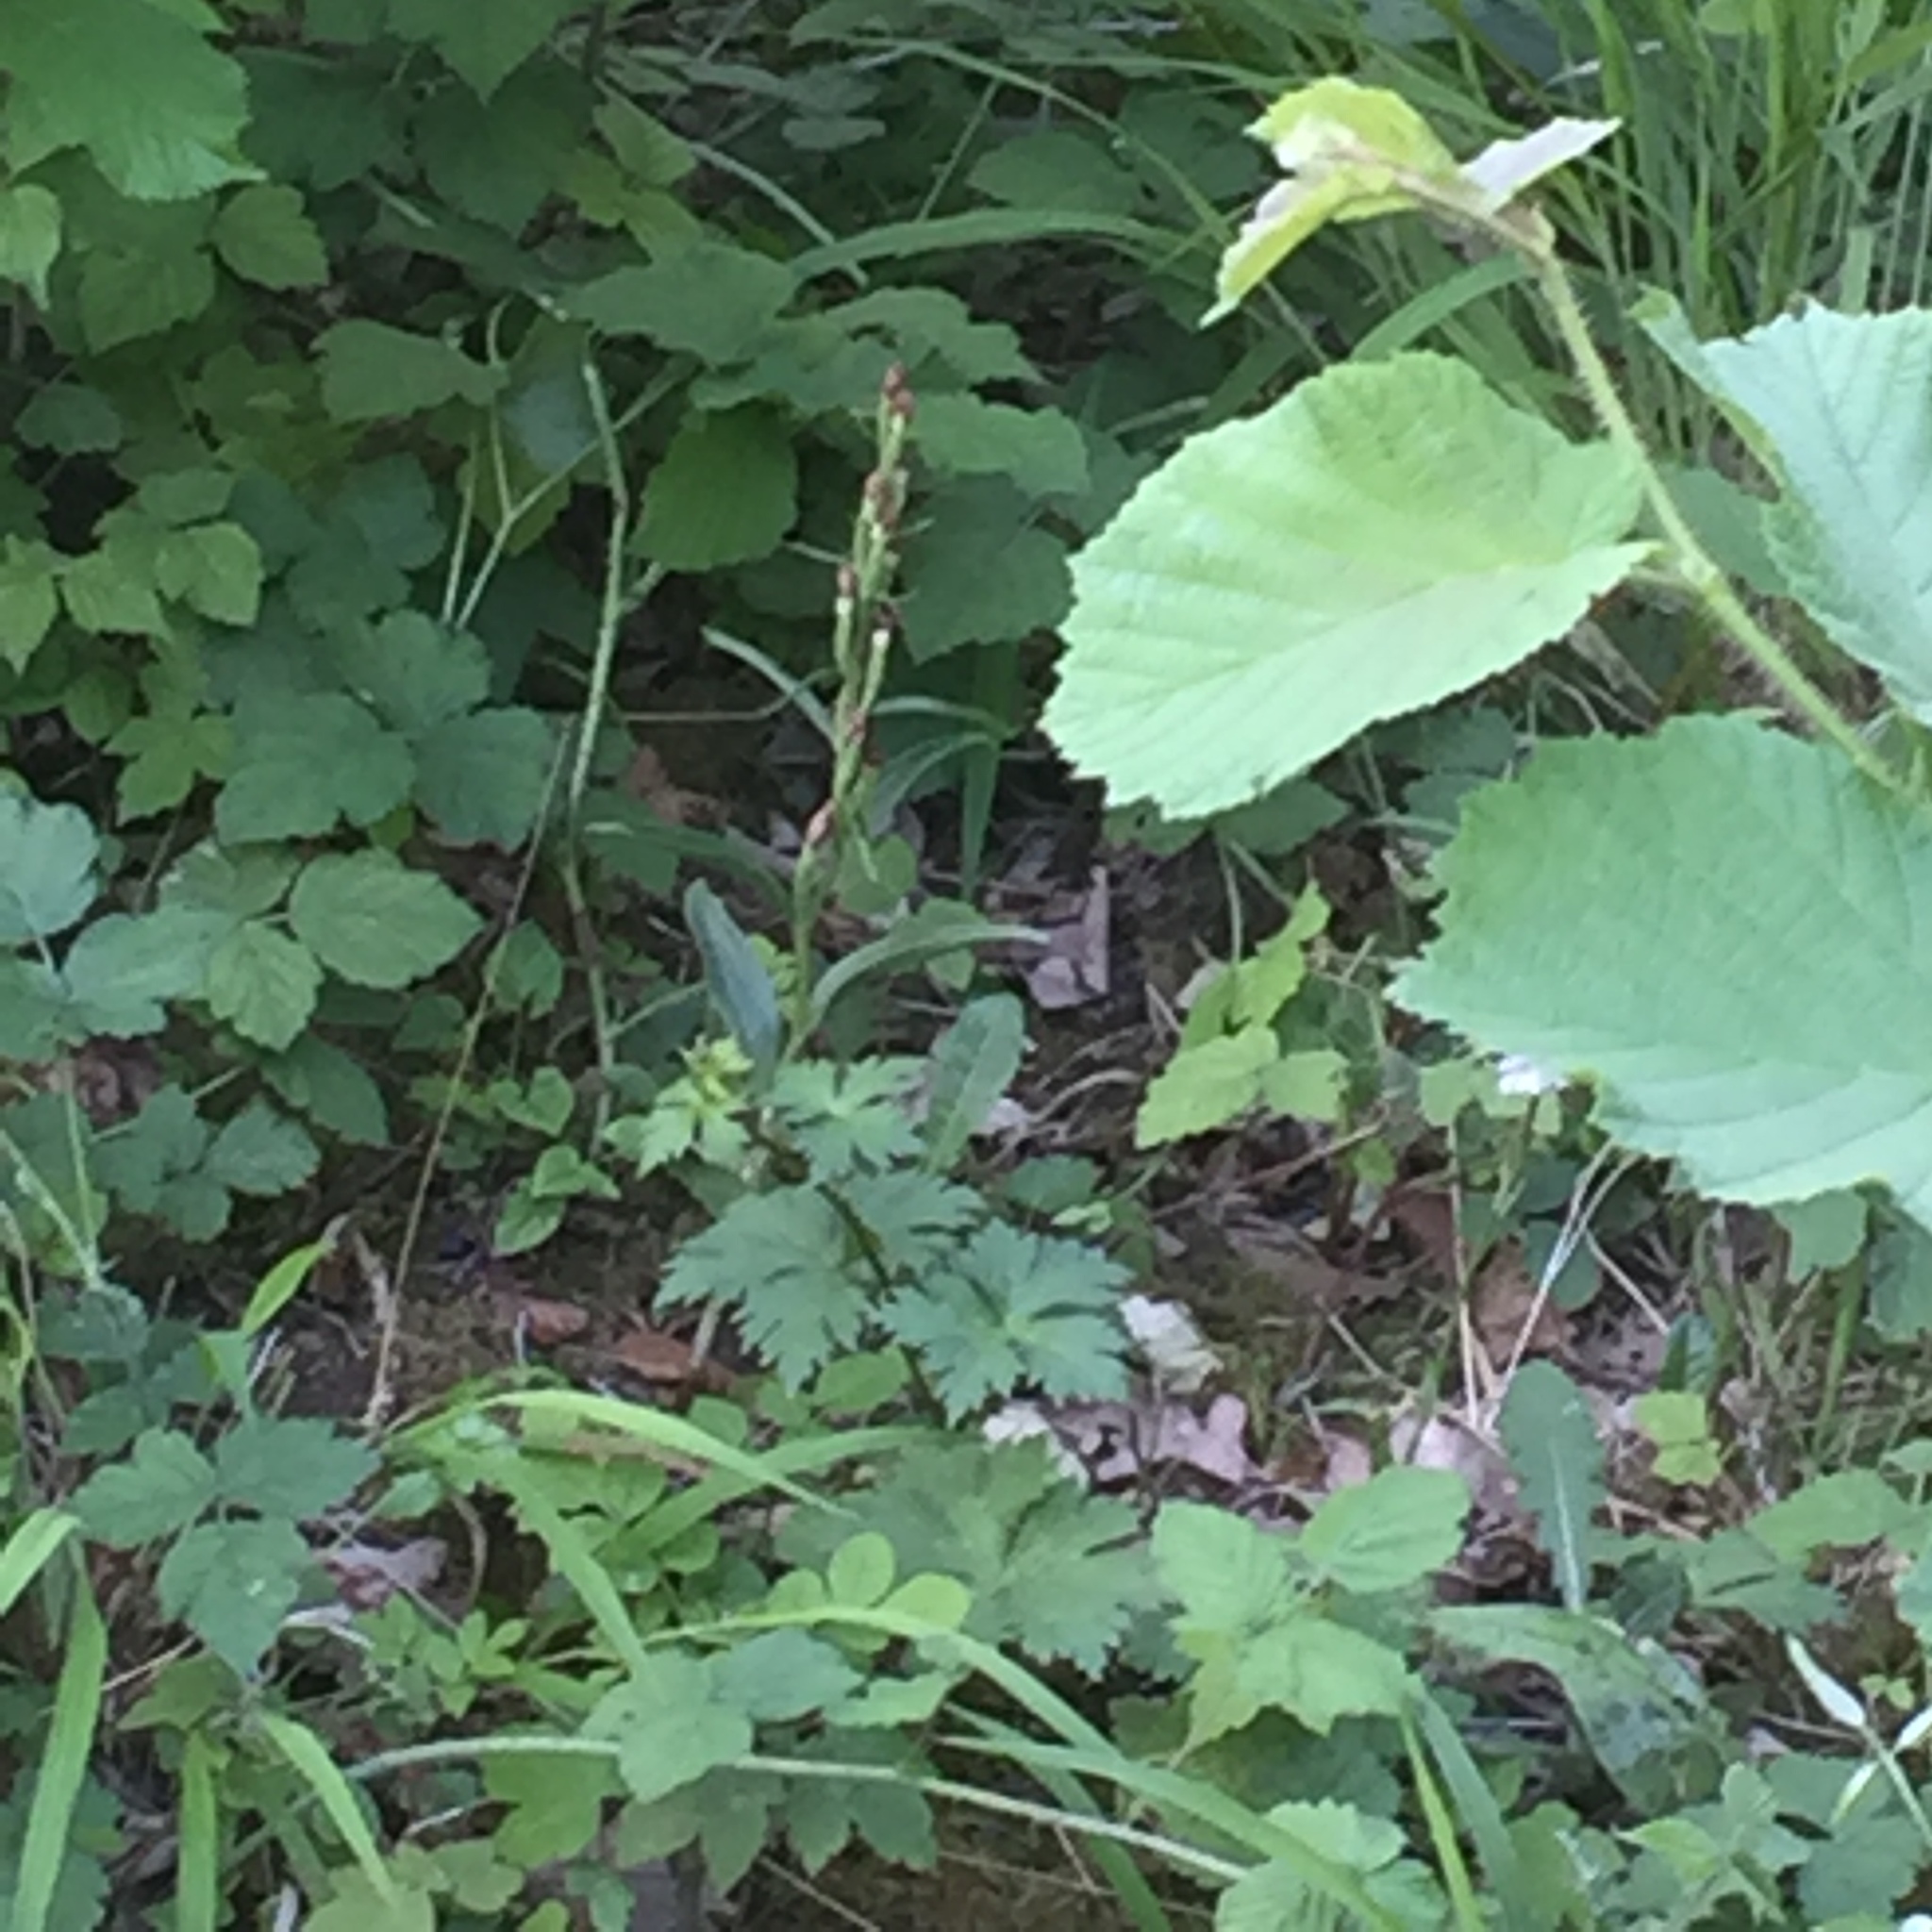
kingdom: Plantae
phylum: Tracheophyta
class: Liliopsida
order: Asparagales
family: Orchidaceae
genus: Cephalanthera
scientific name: Cephalanthera damasonium
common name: White helleborine
